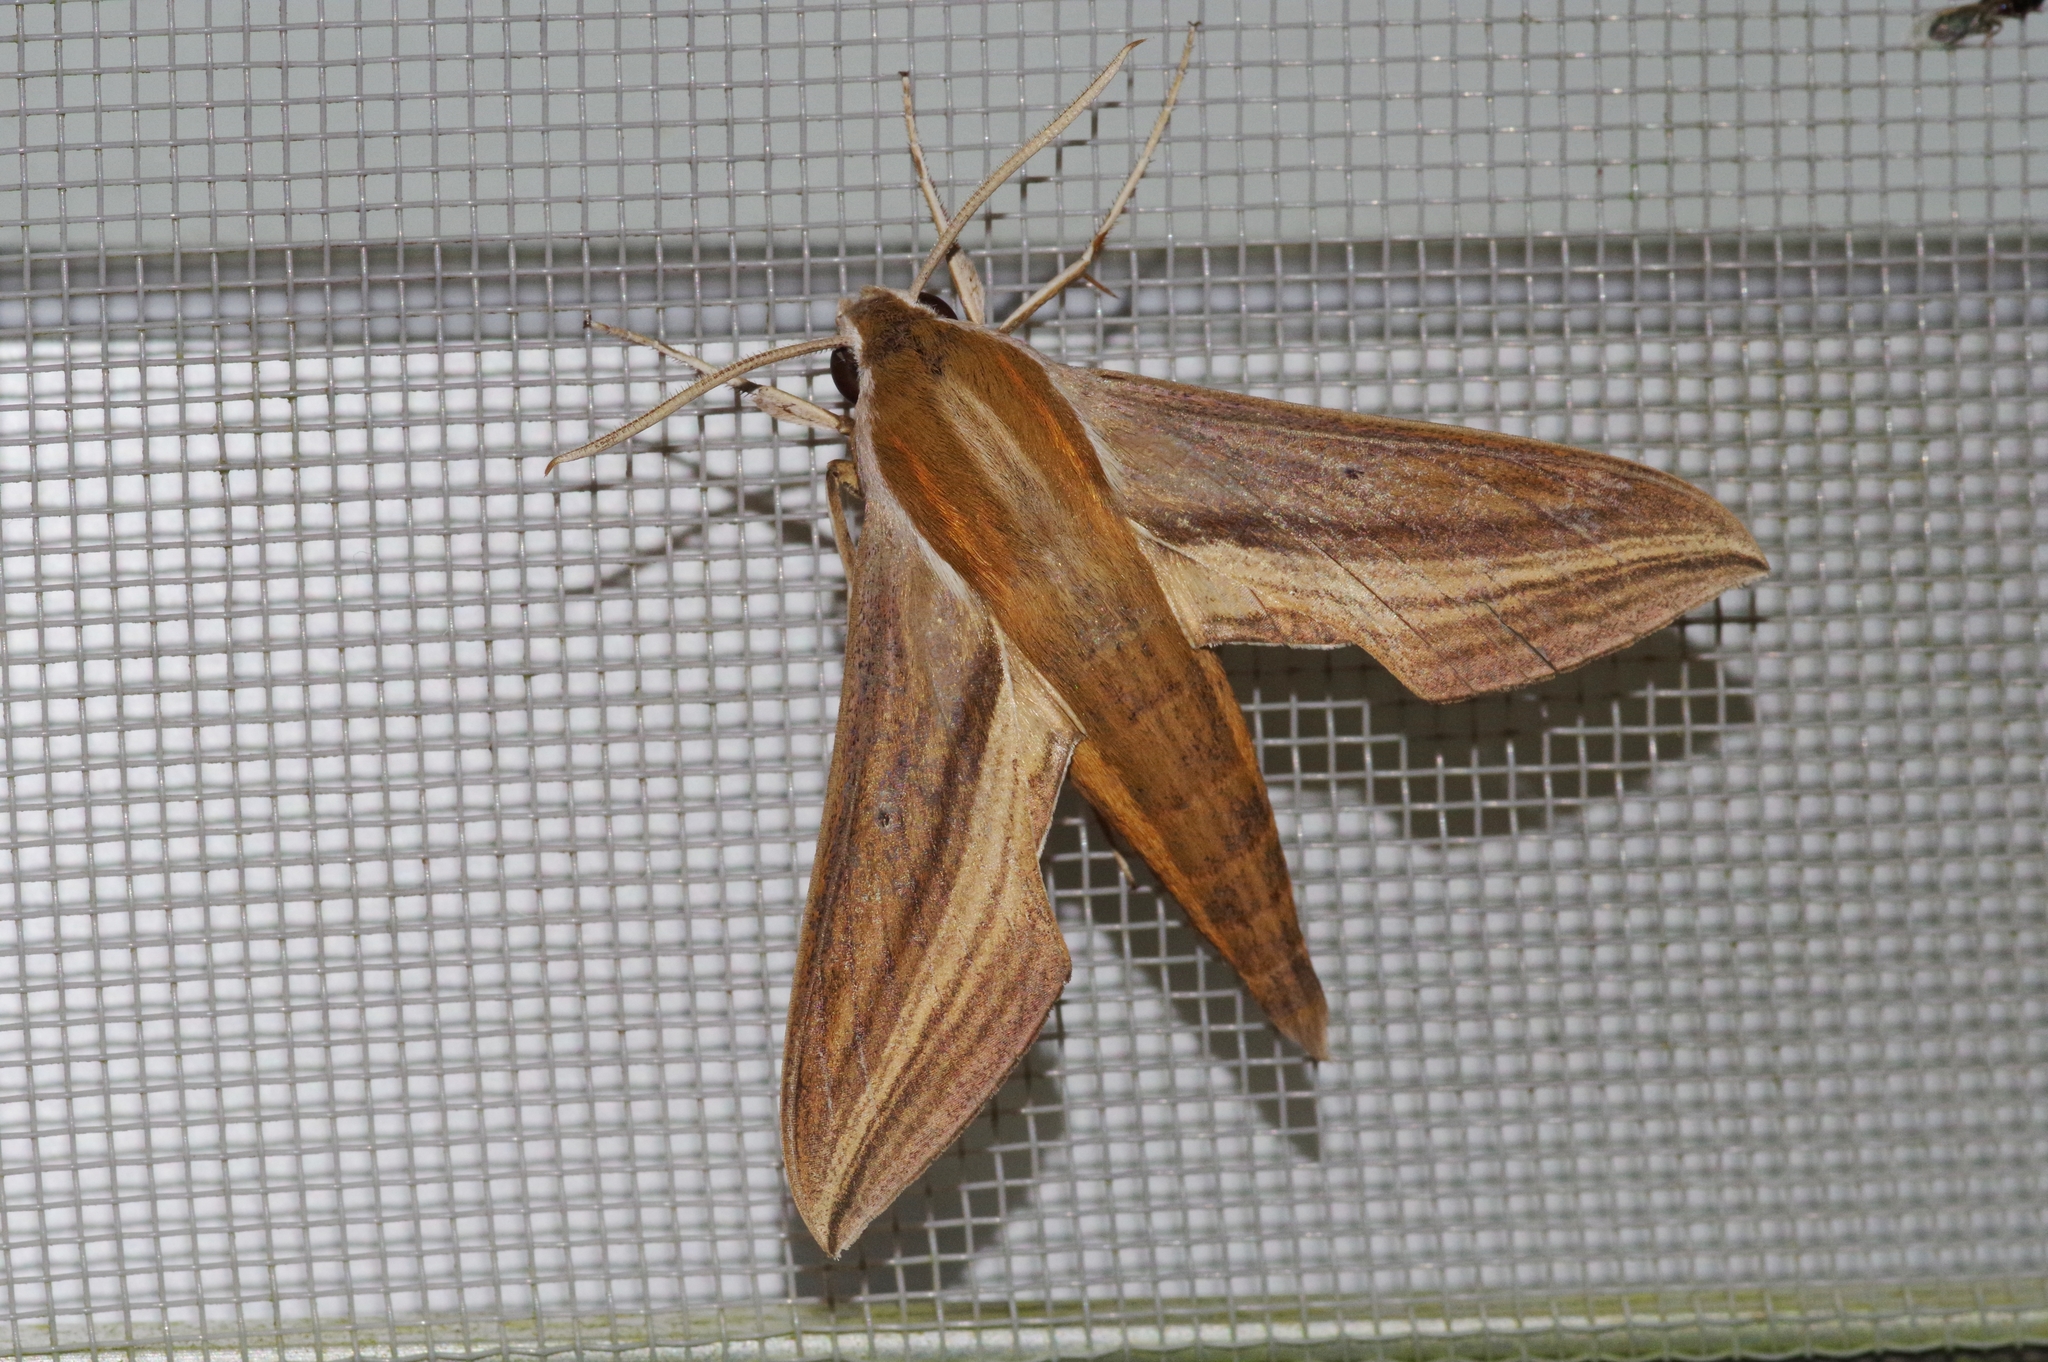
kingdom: Animalia
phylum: Arthropoda
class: Insecta
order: Lepidoptera
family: Sphingidae
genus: Theretra
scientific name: Theretra japonica
